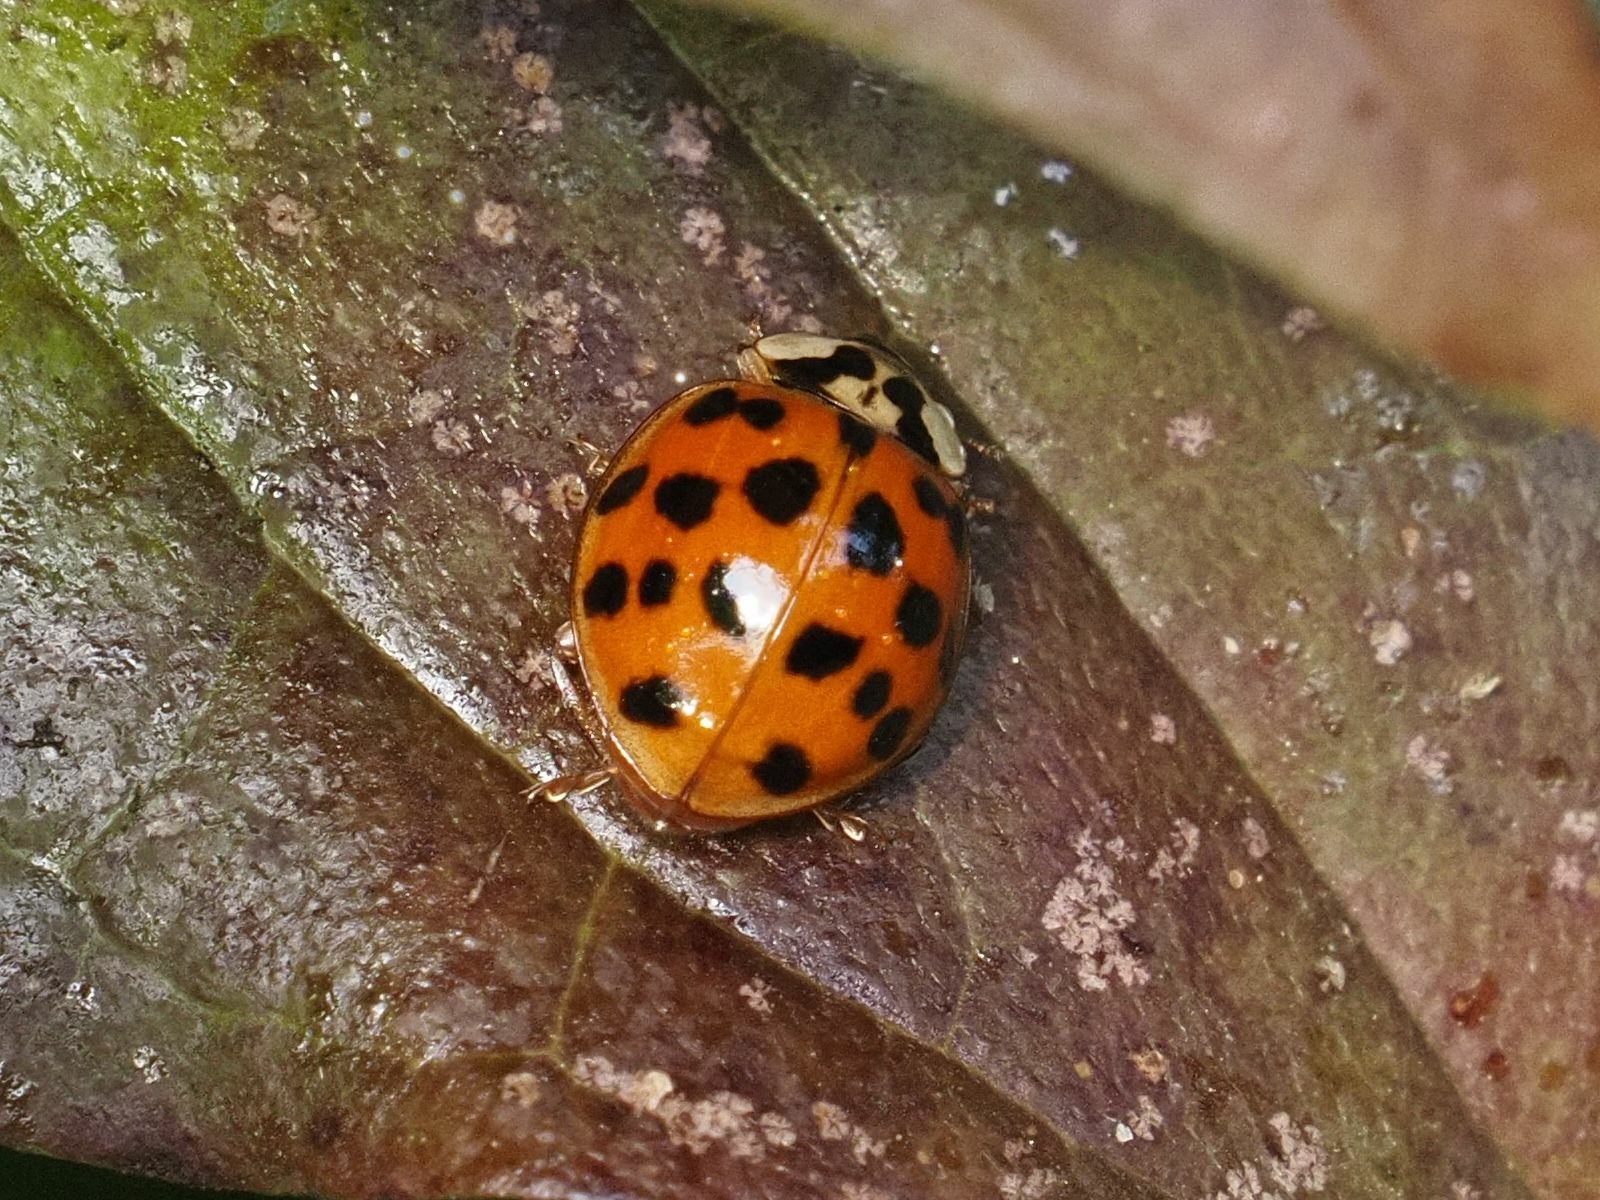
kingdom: Animalia
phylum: Arthropoda
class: Insecta
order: Coleoptera
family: Coccinellidae
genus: Harmonia
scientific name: Harmonia axyridis
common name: Harlequin ladybird
